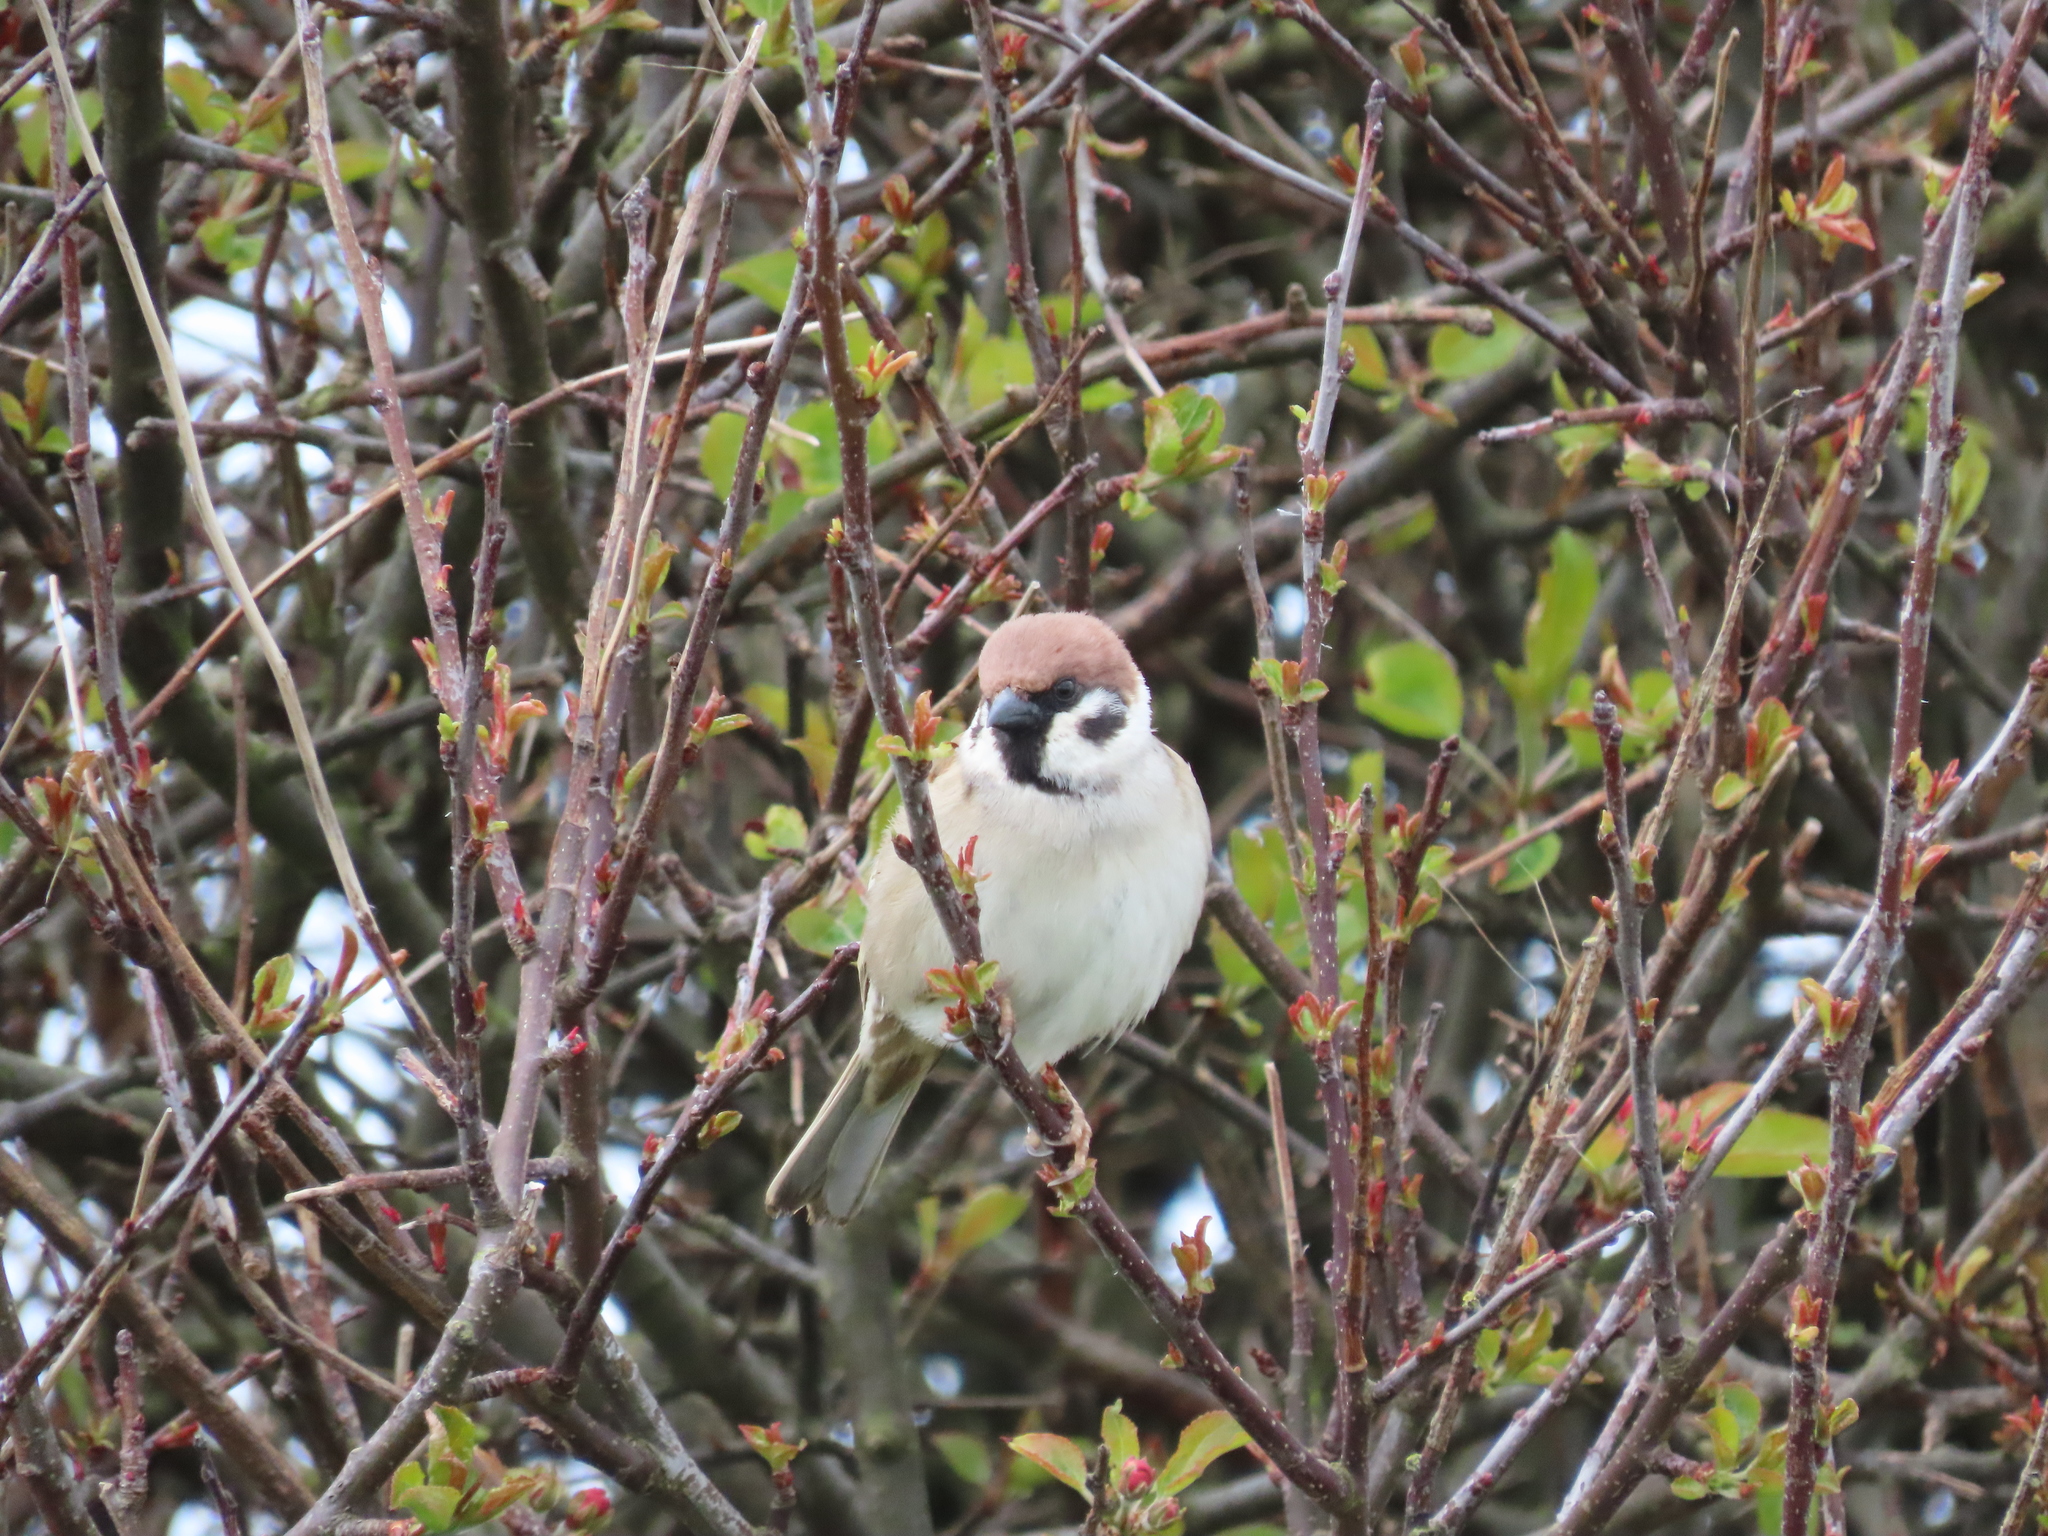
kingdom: Animalia
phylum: Chordata
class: Aves
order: Passeriformes
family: Passeridae
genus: Passer
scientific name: Passer montanus
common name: Eurasian tree sparrow
